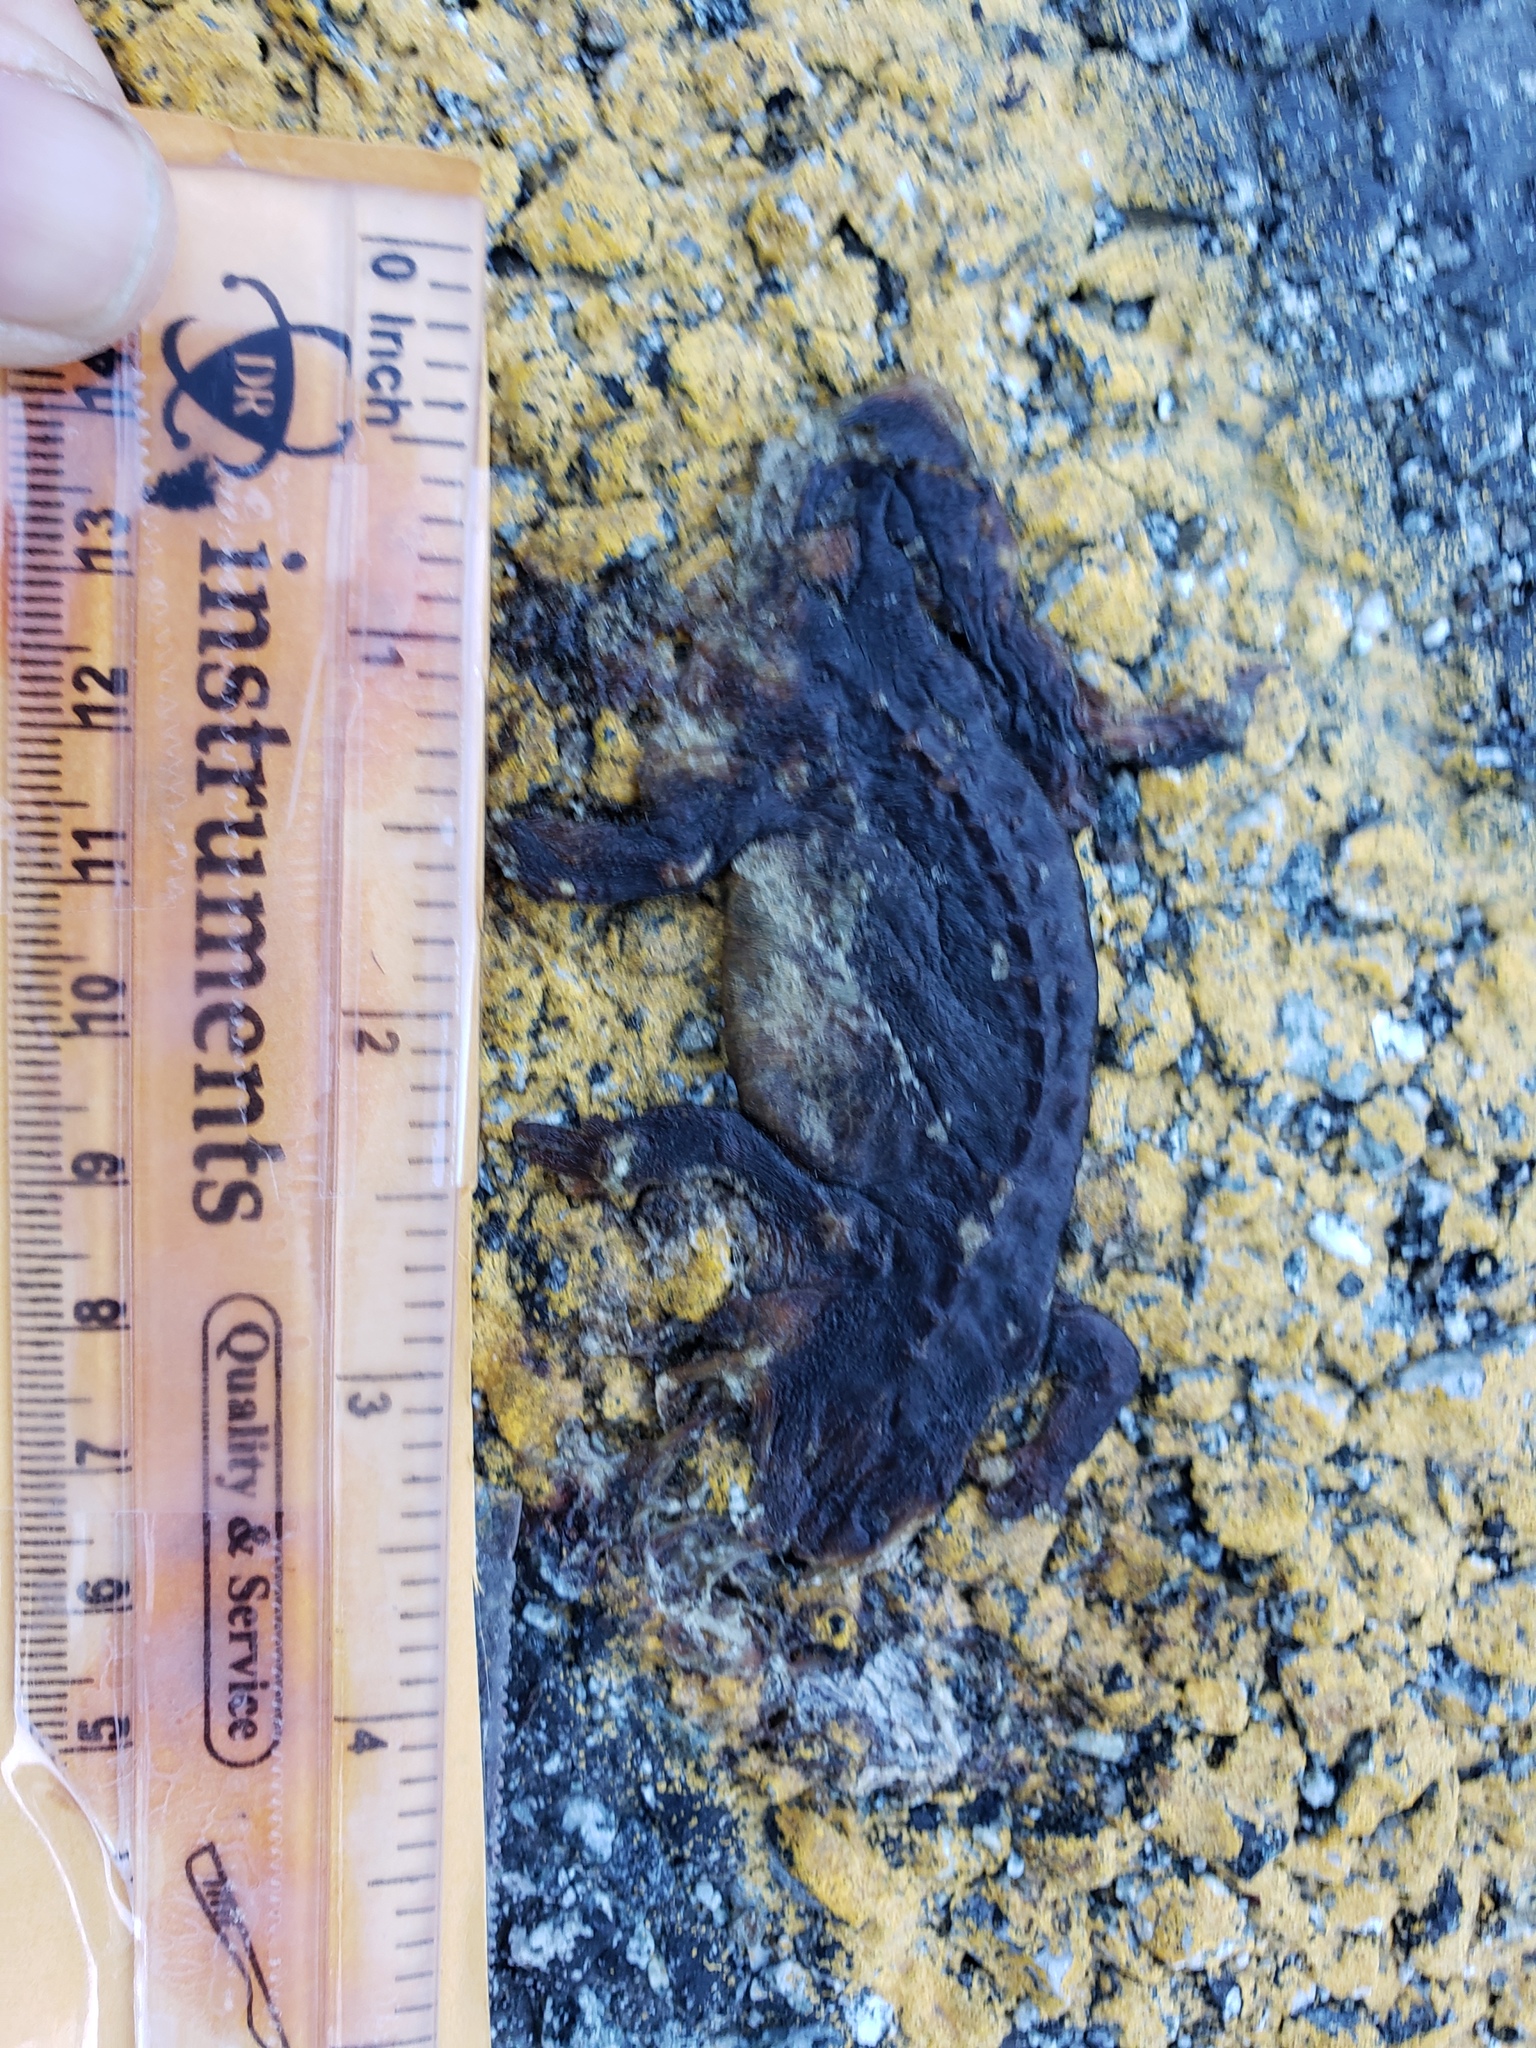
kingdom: Animalia
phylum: Chordata
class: Amphibia
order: Caudata
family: Salamandridae
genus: Taricha
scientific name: Taricha
